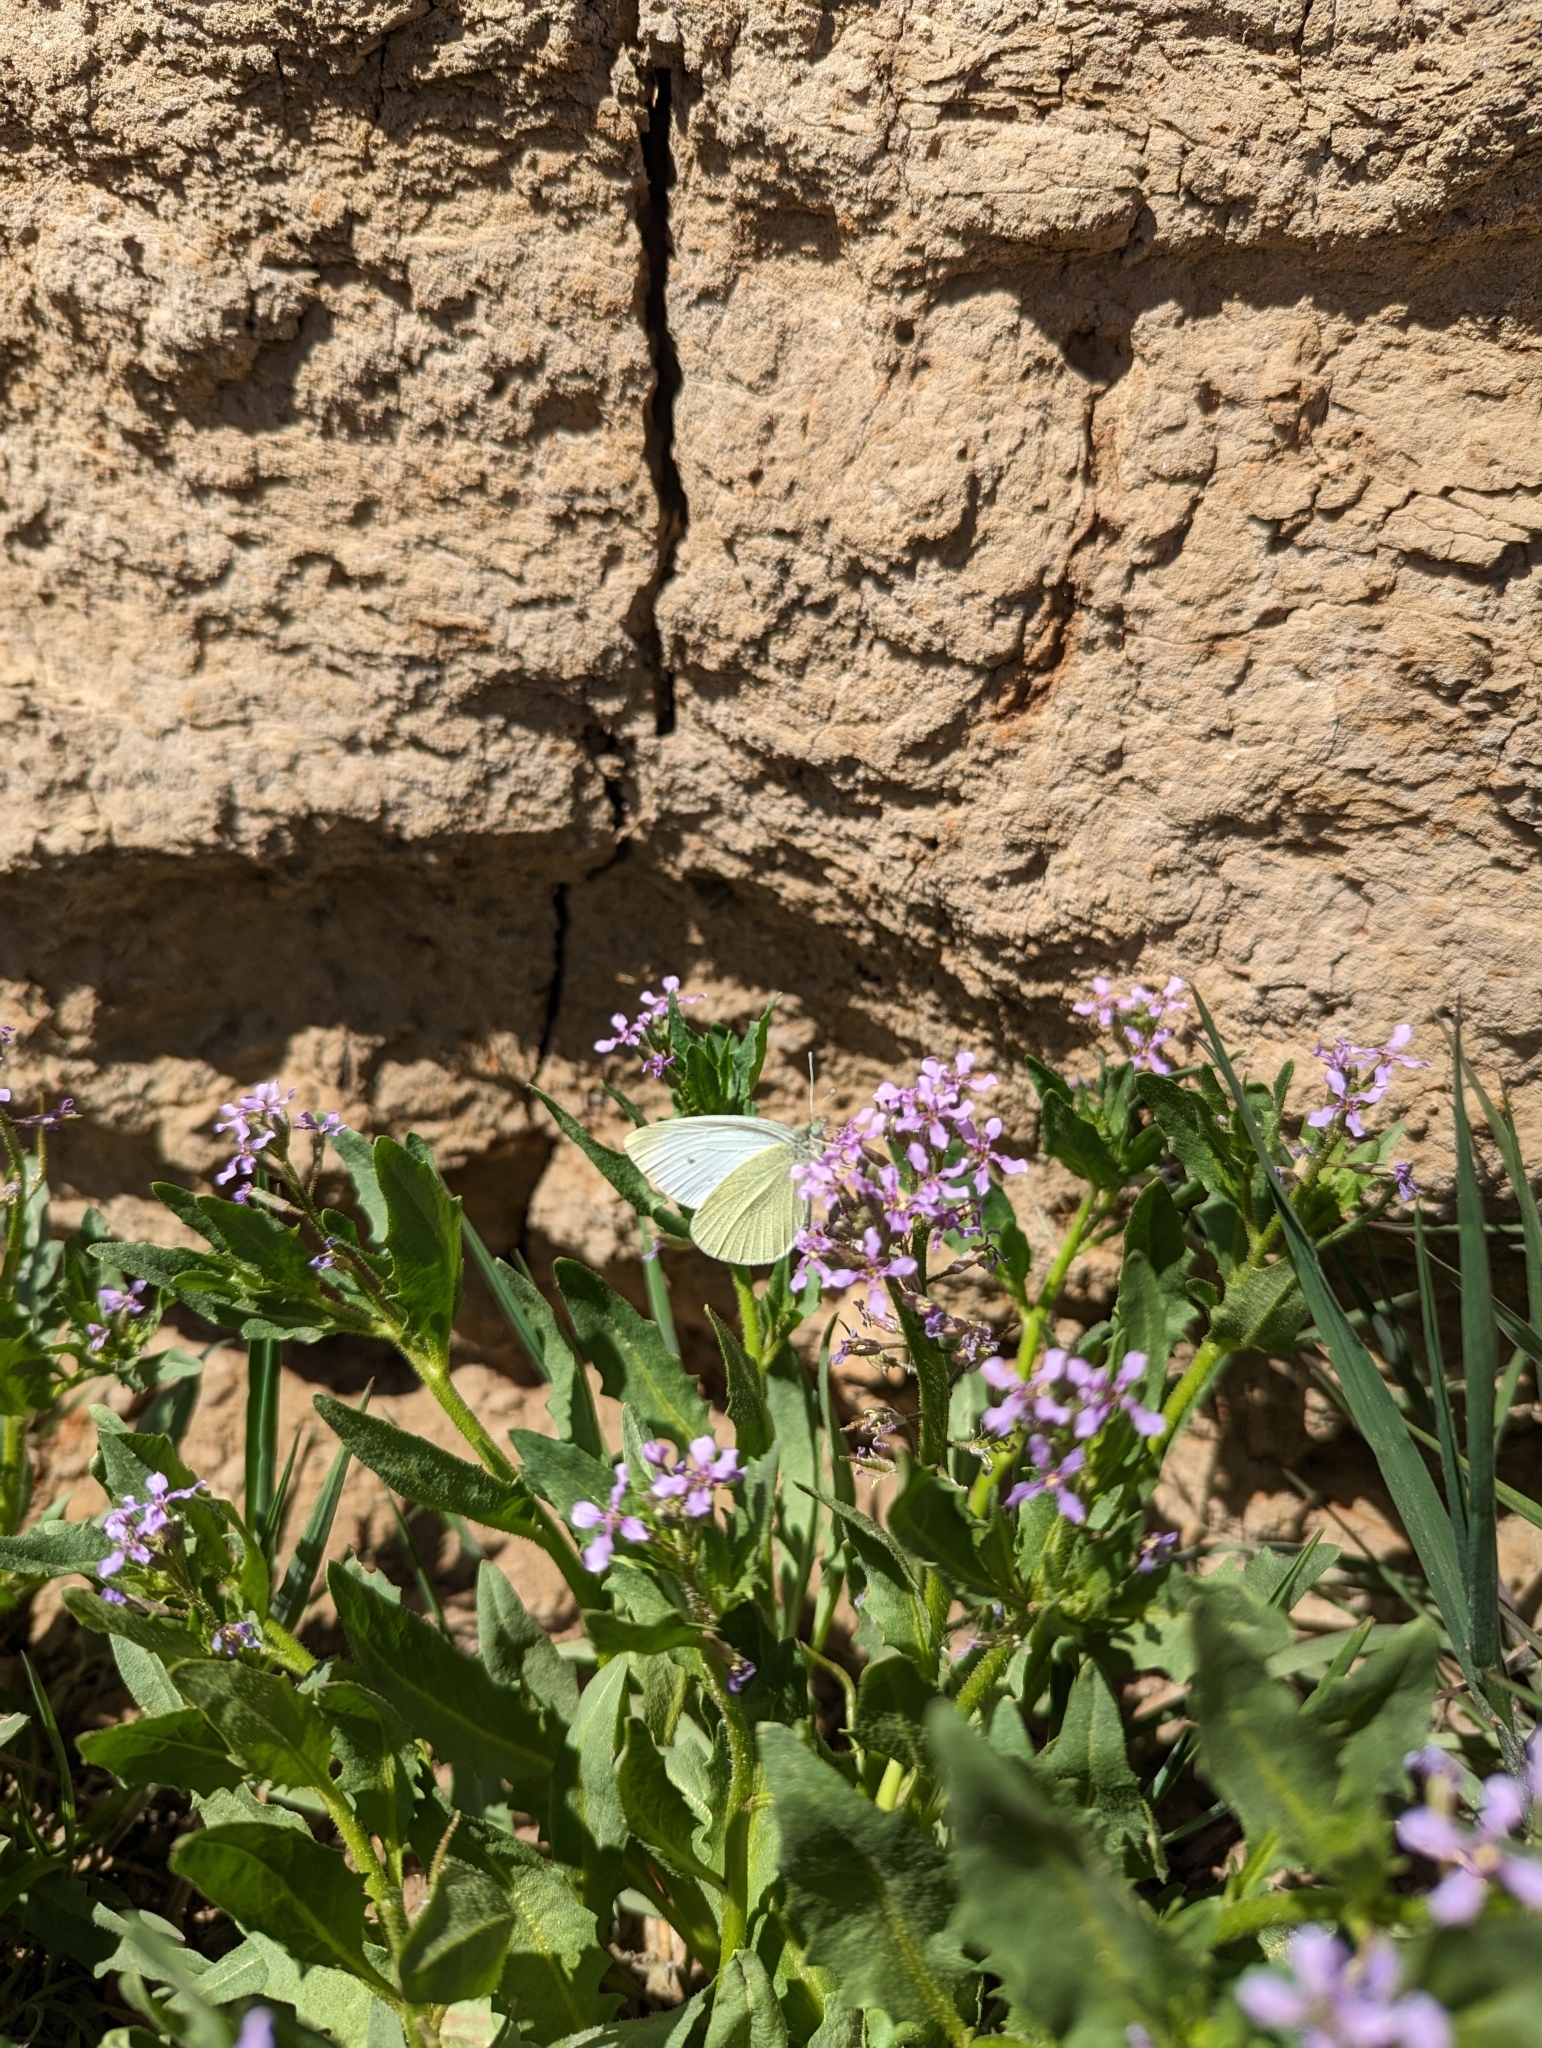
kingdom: Animalia
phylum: Arthropoda
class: Insecta
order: Lepidoptera
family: Pieridae
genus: Pieris
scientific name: Pieris rapae
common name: Small white
